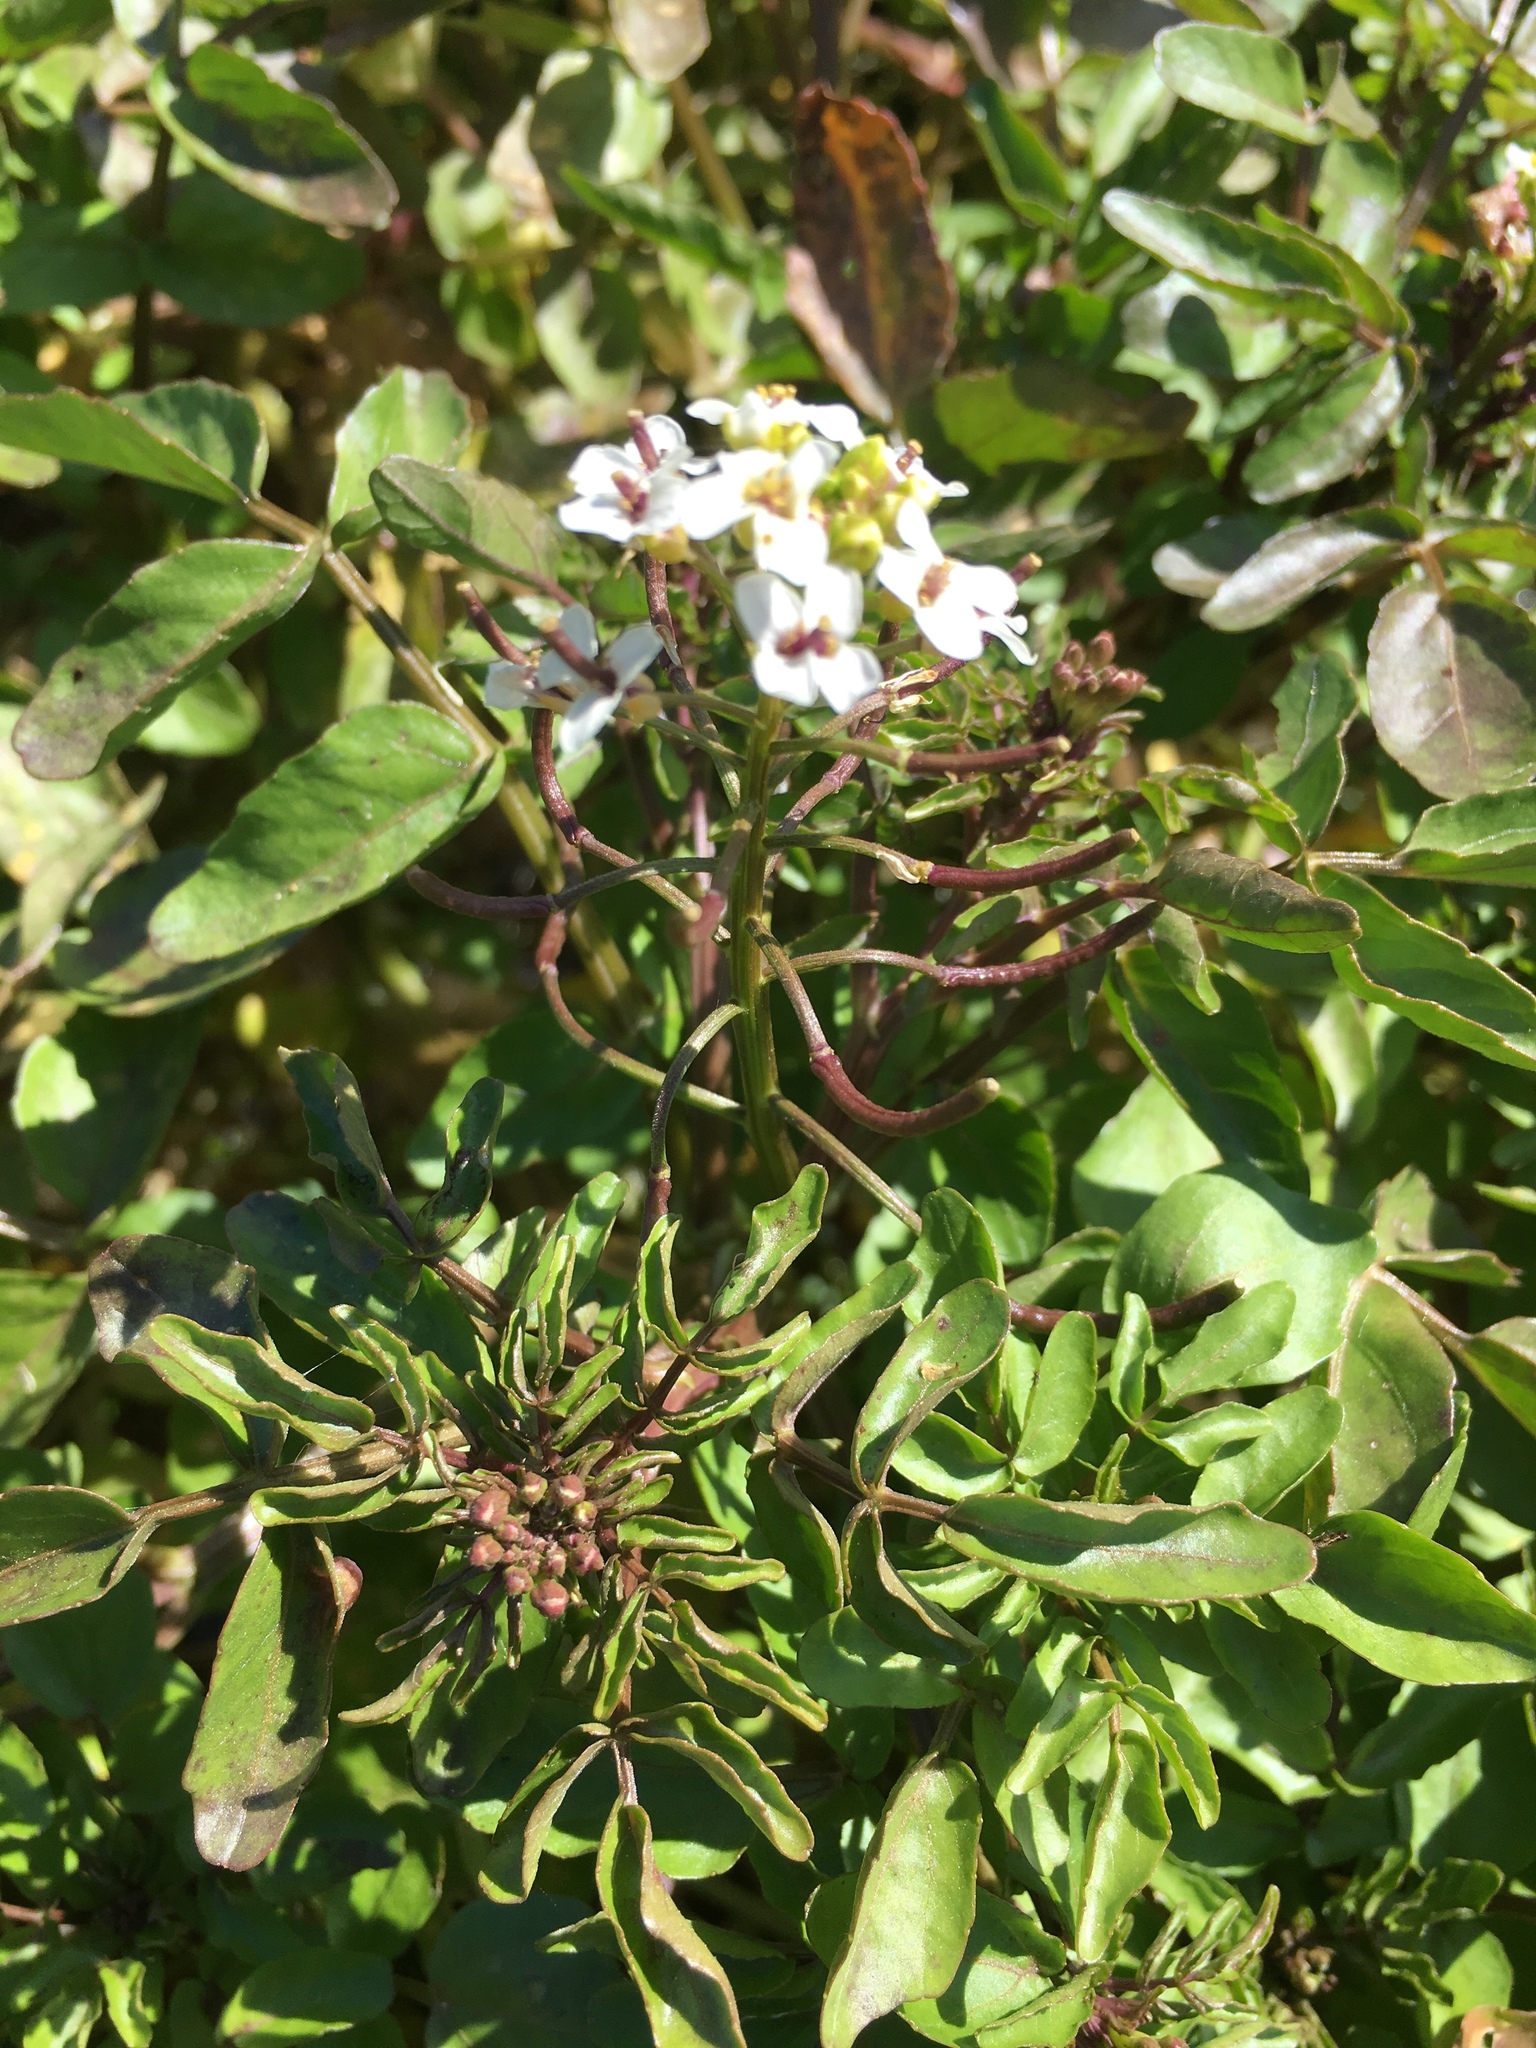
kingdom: Plantae
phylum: Tracheophyta
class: Magnoliopsida
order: Brassicales
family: Brassicaceae
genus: Nasturtium
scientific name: Nasturtium officinale
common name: Watercress
